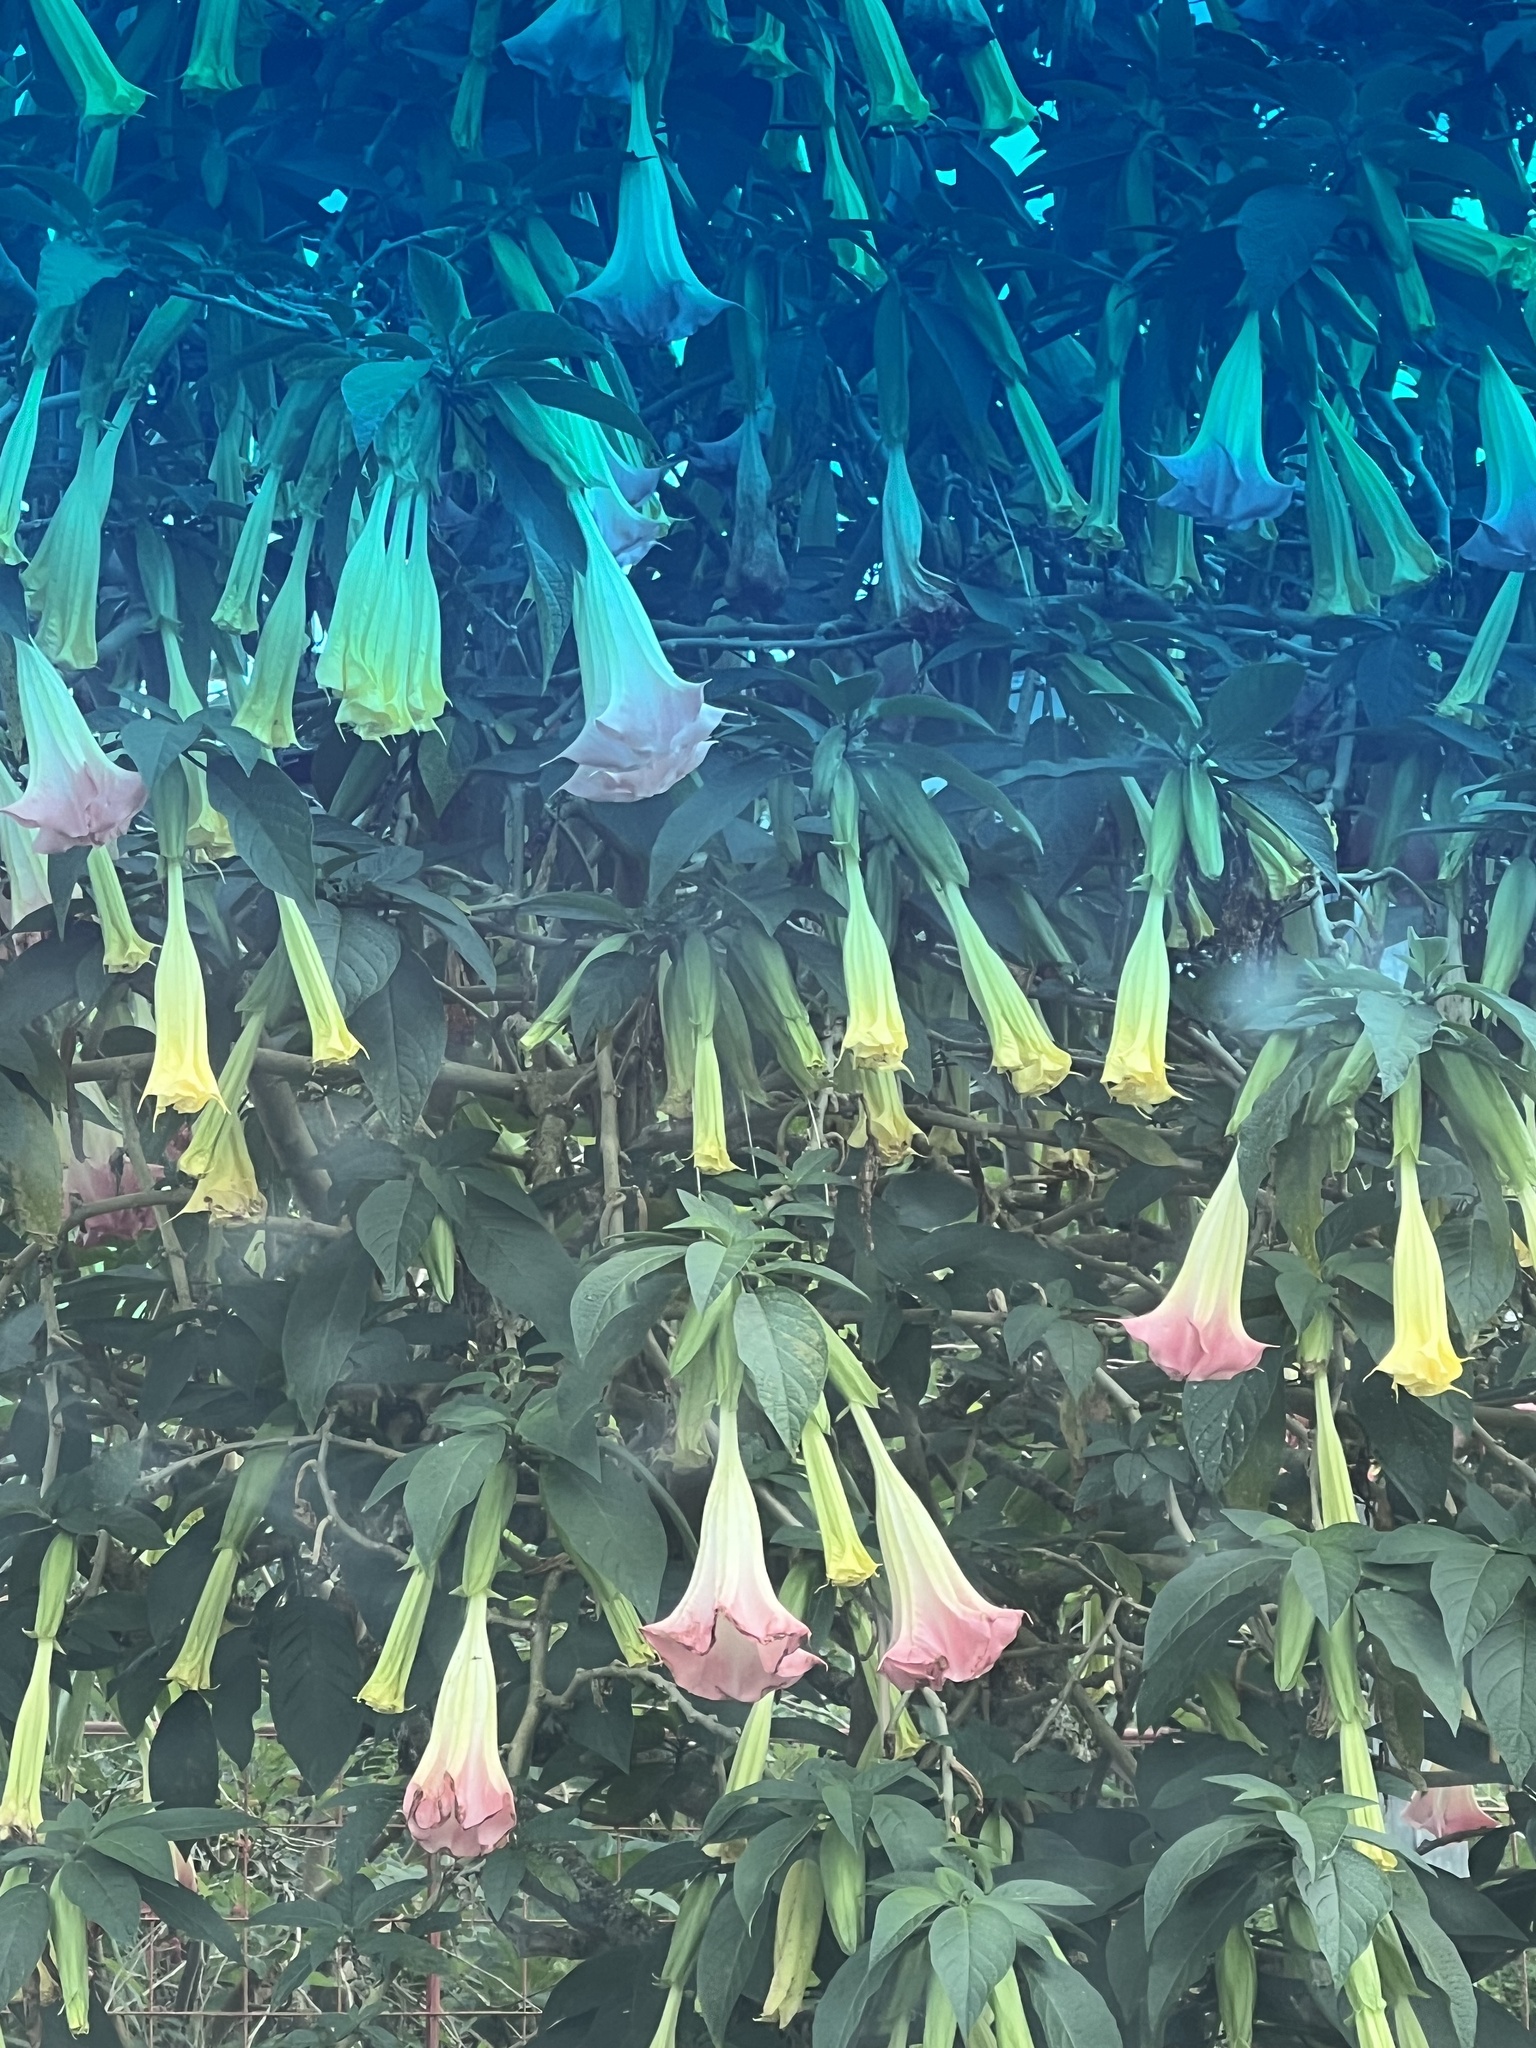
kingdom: Plantae
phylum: Tracheophyta
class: Magnoliopsida
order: Solanales
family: Solanaceae
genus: Brugmansia
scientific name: Brugmansia insignis
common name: Pink angel's-trumpet
